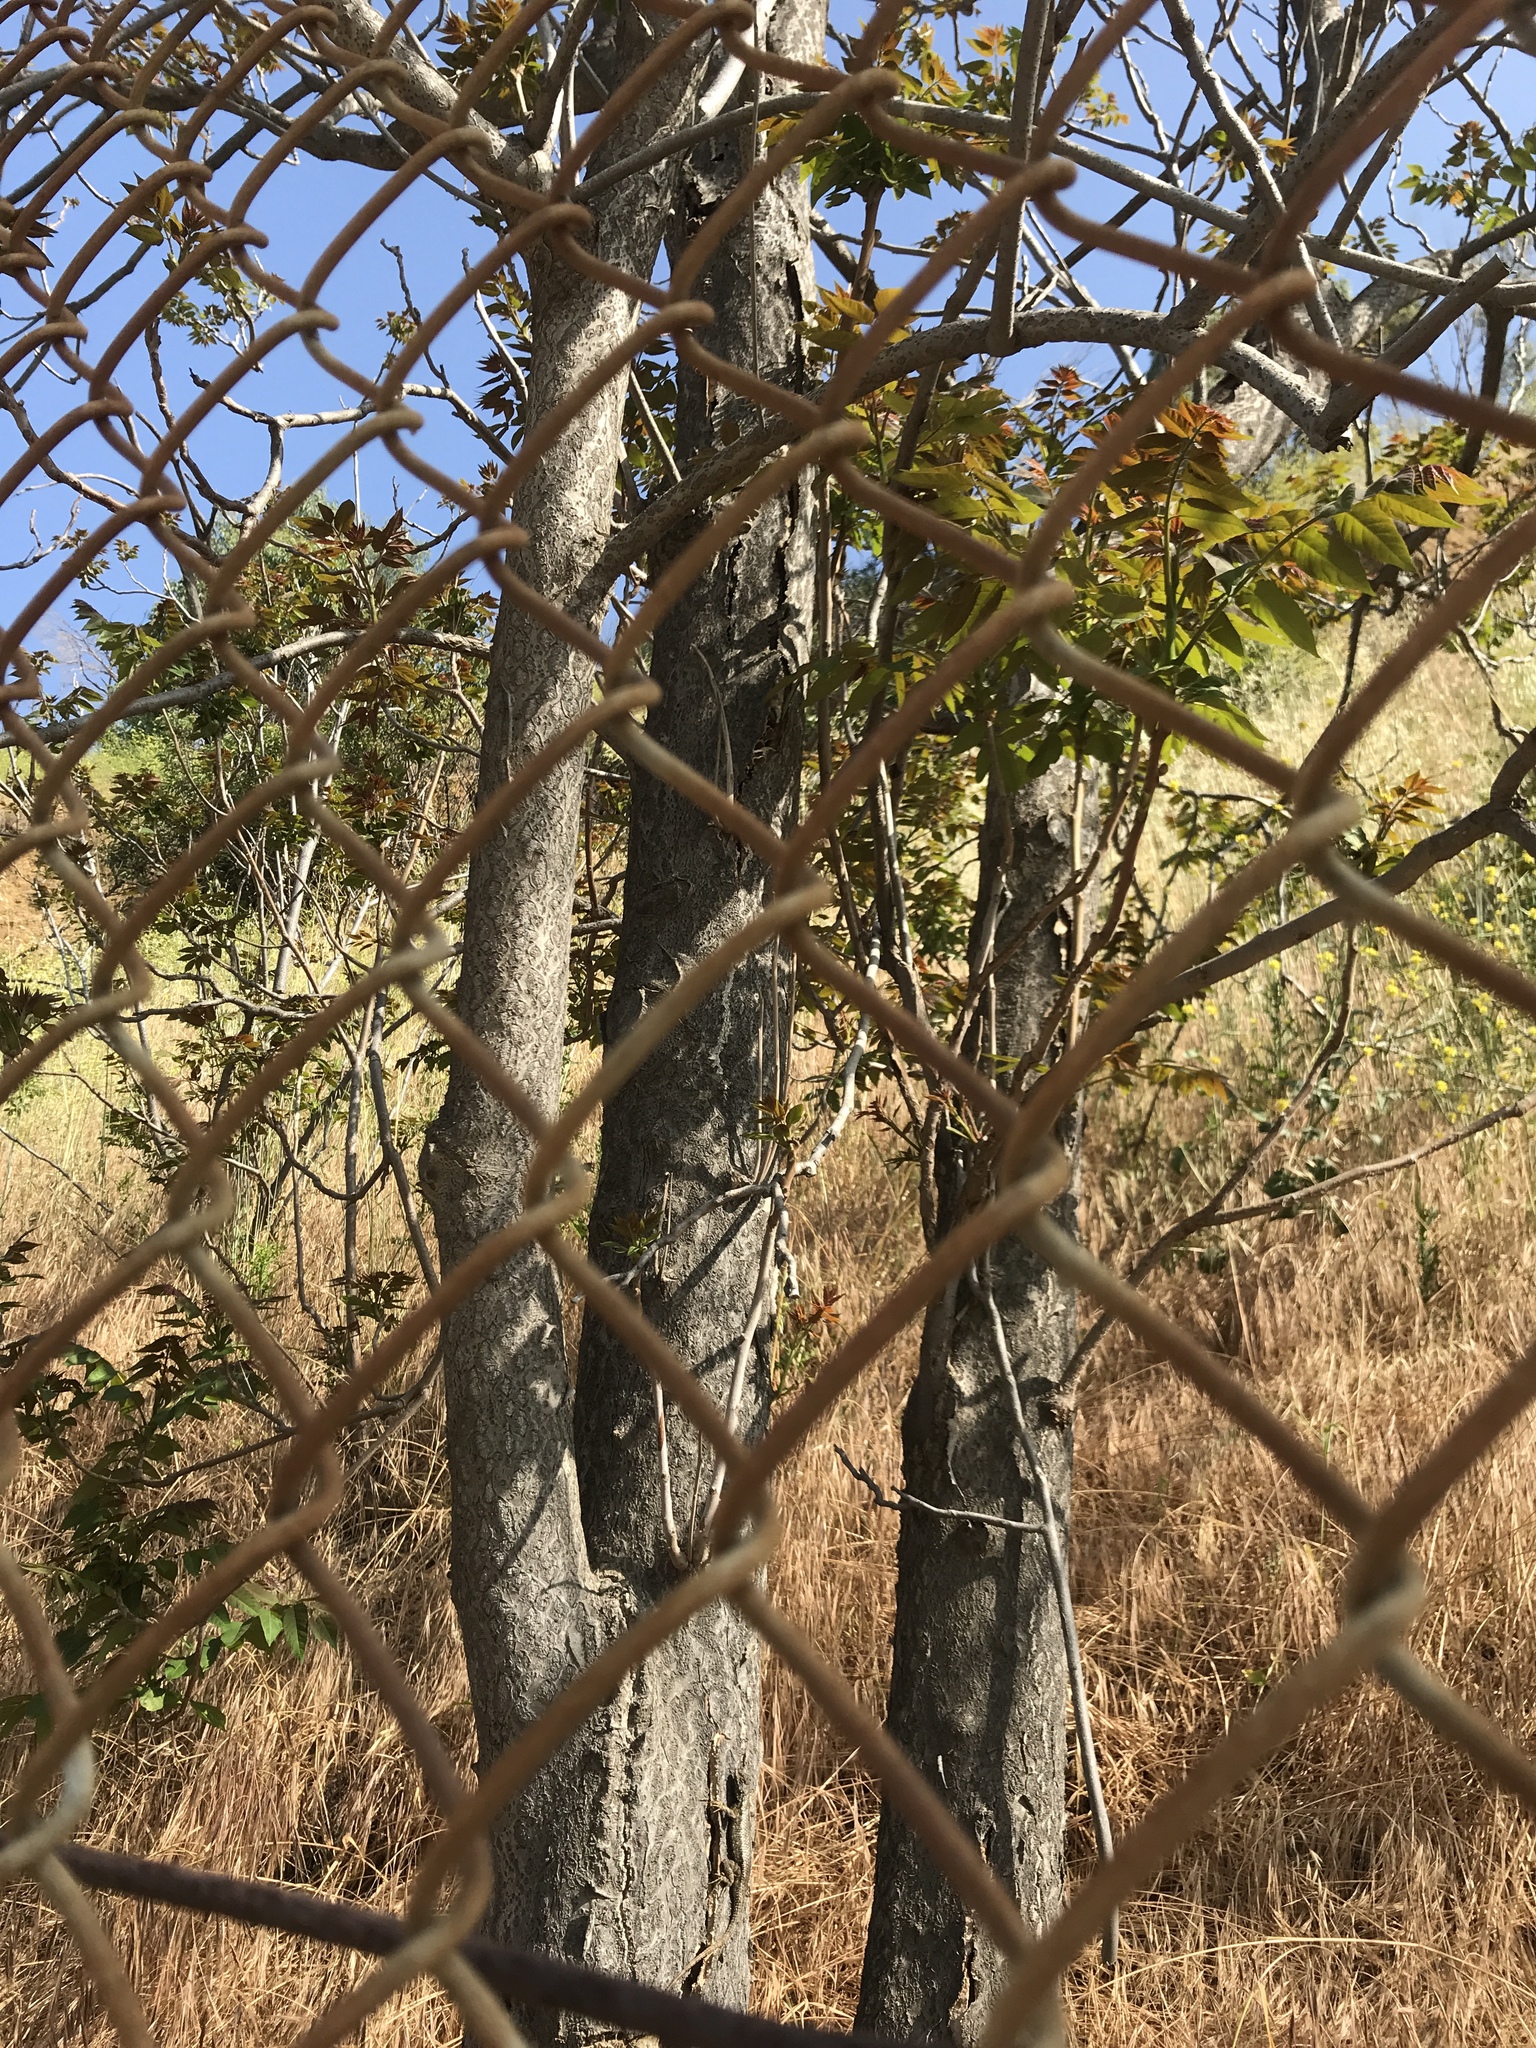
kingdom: Plantae
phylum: Tracheophyta
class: Magnoliopsida
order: Sapindales
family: Simaroubaceae
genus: Ailanthus
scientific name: Ailanthus altissima
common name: Tree-of-heaven
